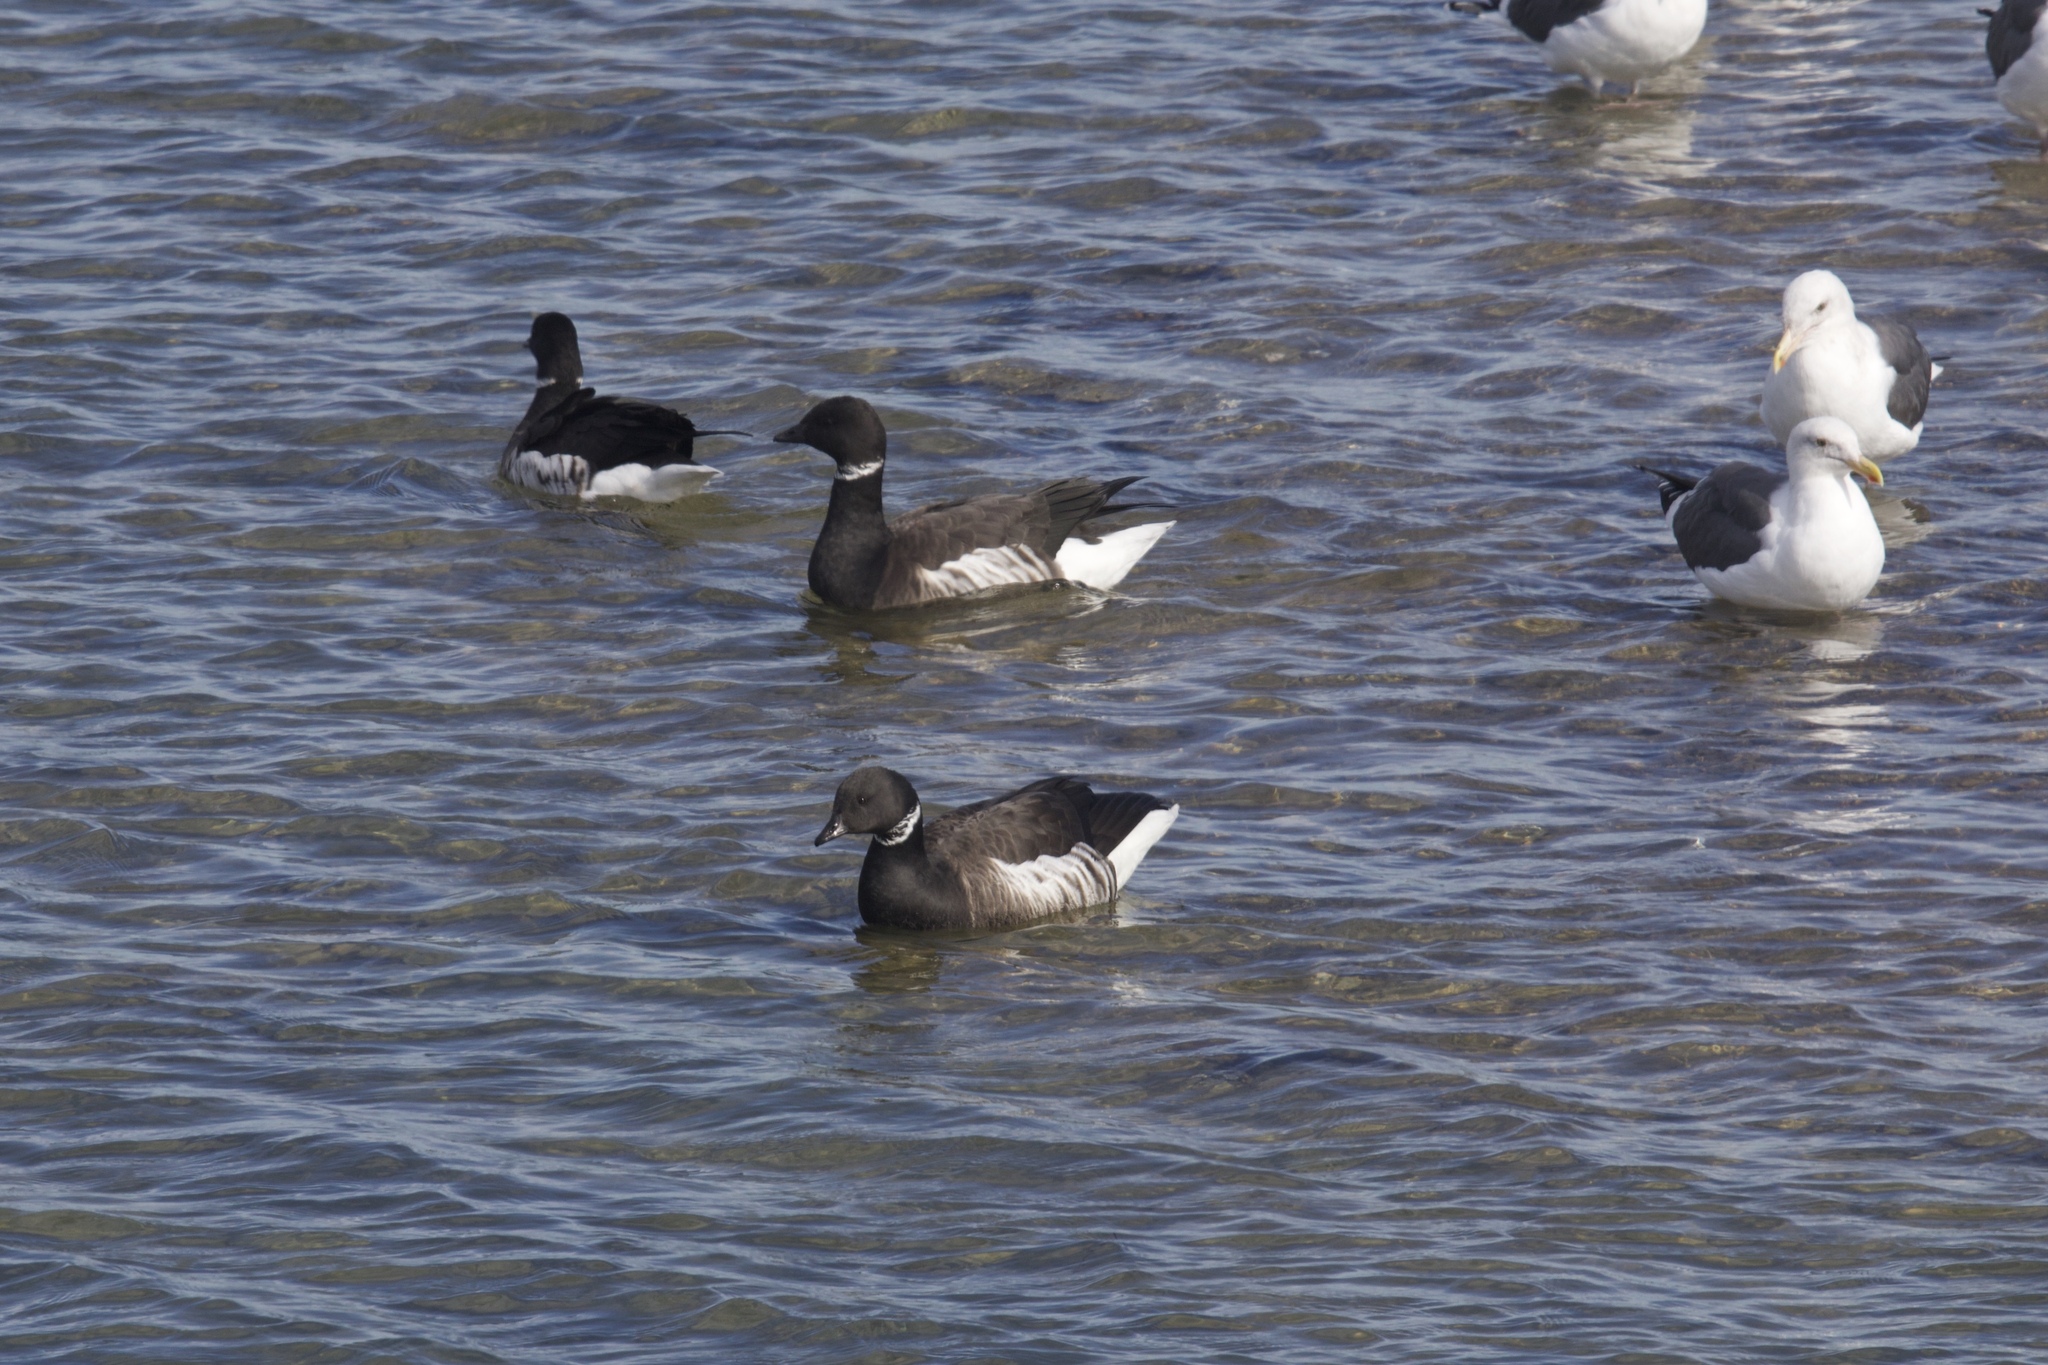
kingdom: Animalia
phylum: Chordata
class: Aves
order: Anseriformes
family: Anatidae
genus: Branta
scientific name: Branta bernicla
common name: Brant goose
